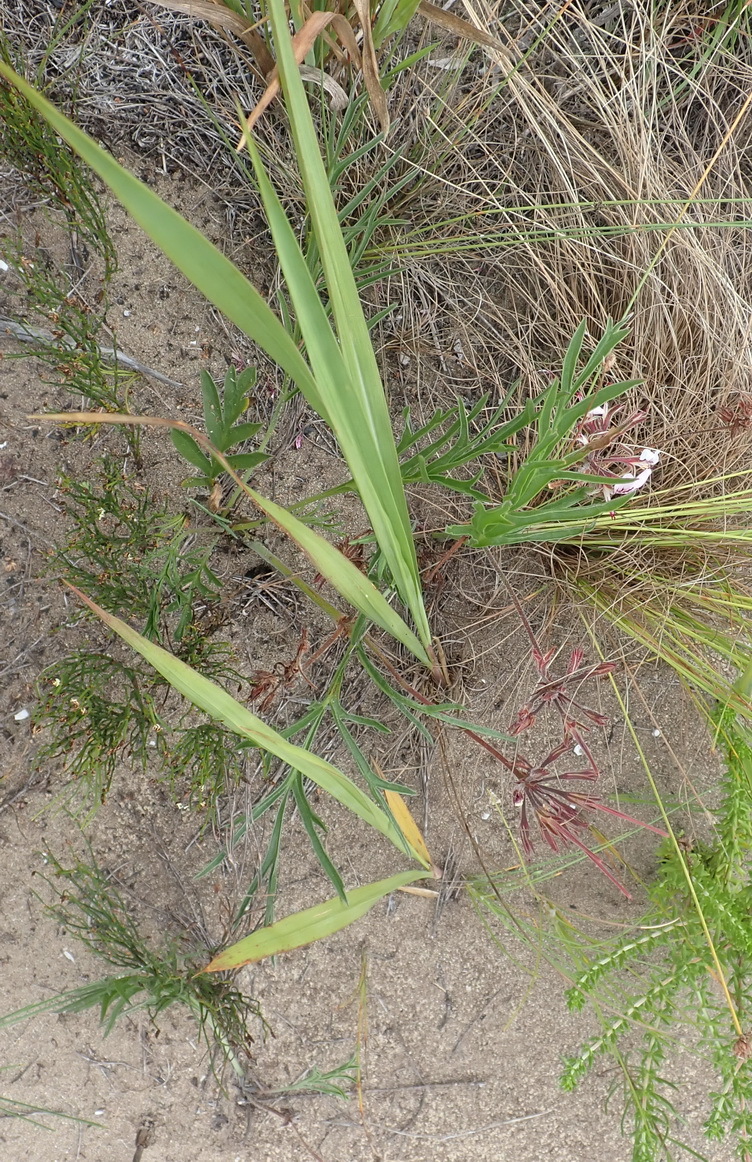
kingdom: Plantae
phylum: Tracheophyta
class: Magnoliopsida
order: Geraniales
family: Geraniaceae
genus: Pelargonium
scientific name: Pelargonium dipetalum
